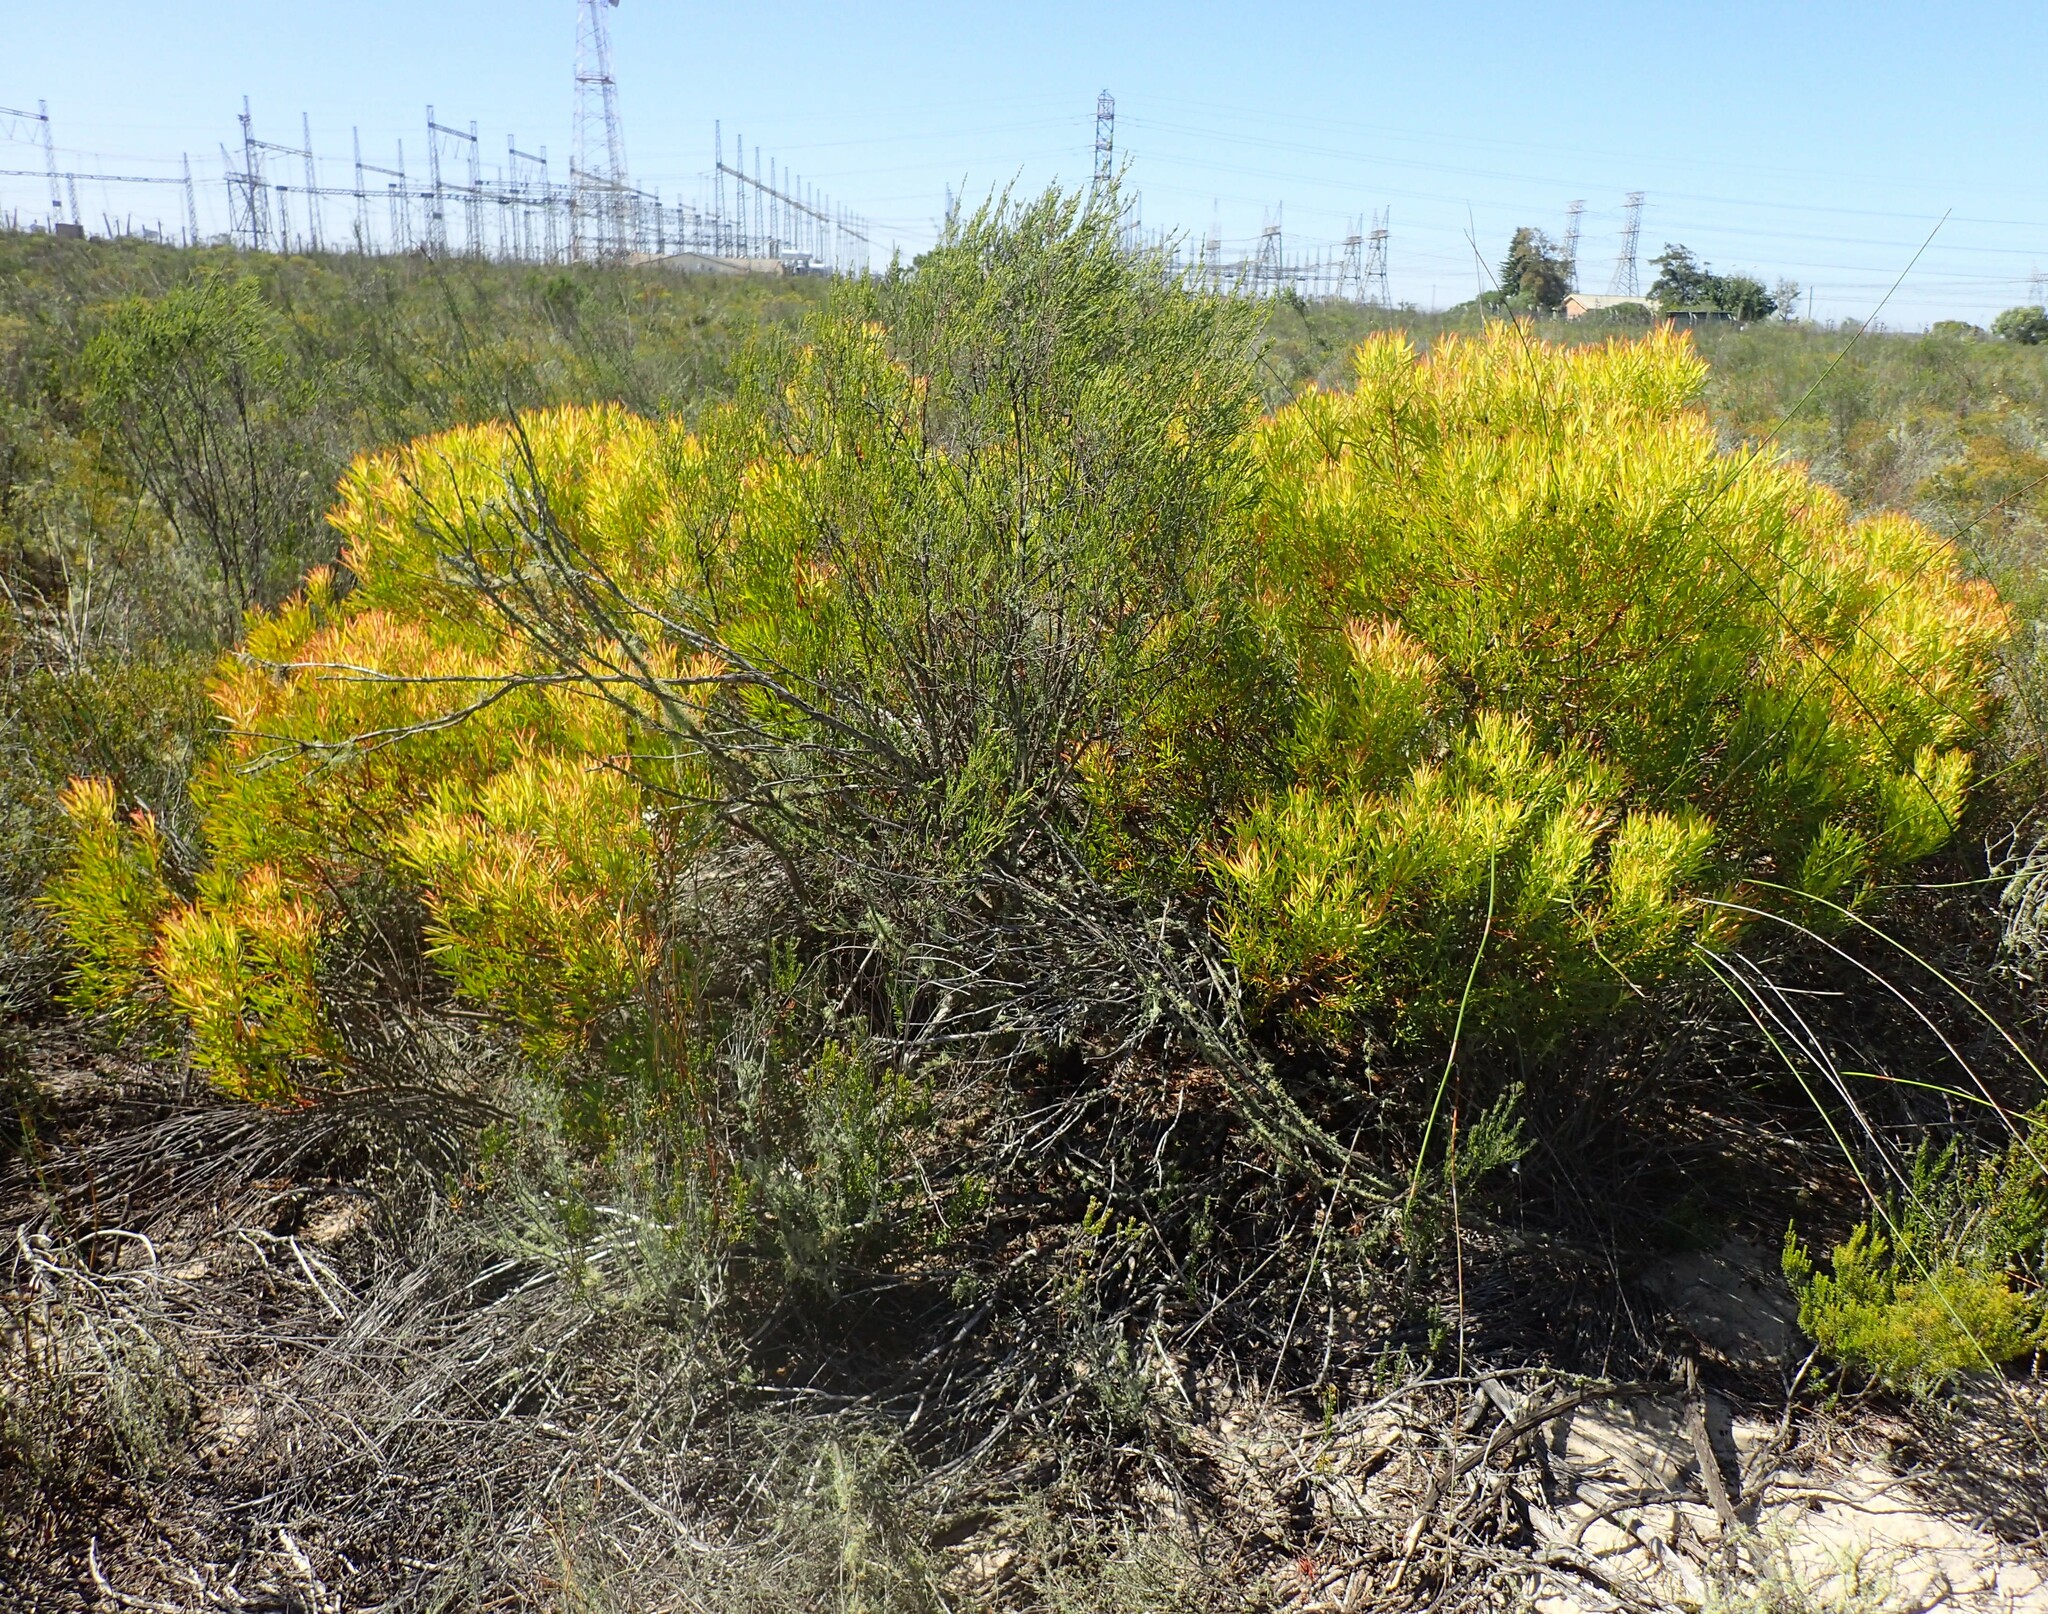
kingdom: Plantae
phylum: Tracheophyta
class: Magnoliopsida
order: Proteales
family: Proteaceae
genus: Leucadendron
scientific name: Leucadendron salignum
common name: Common sunshine conebush
